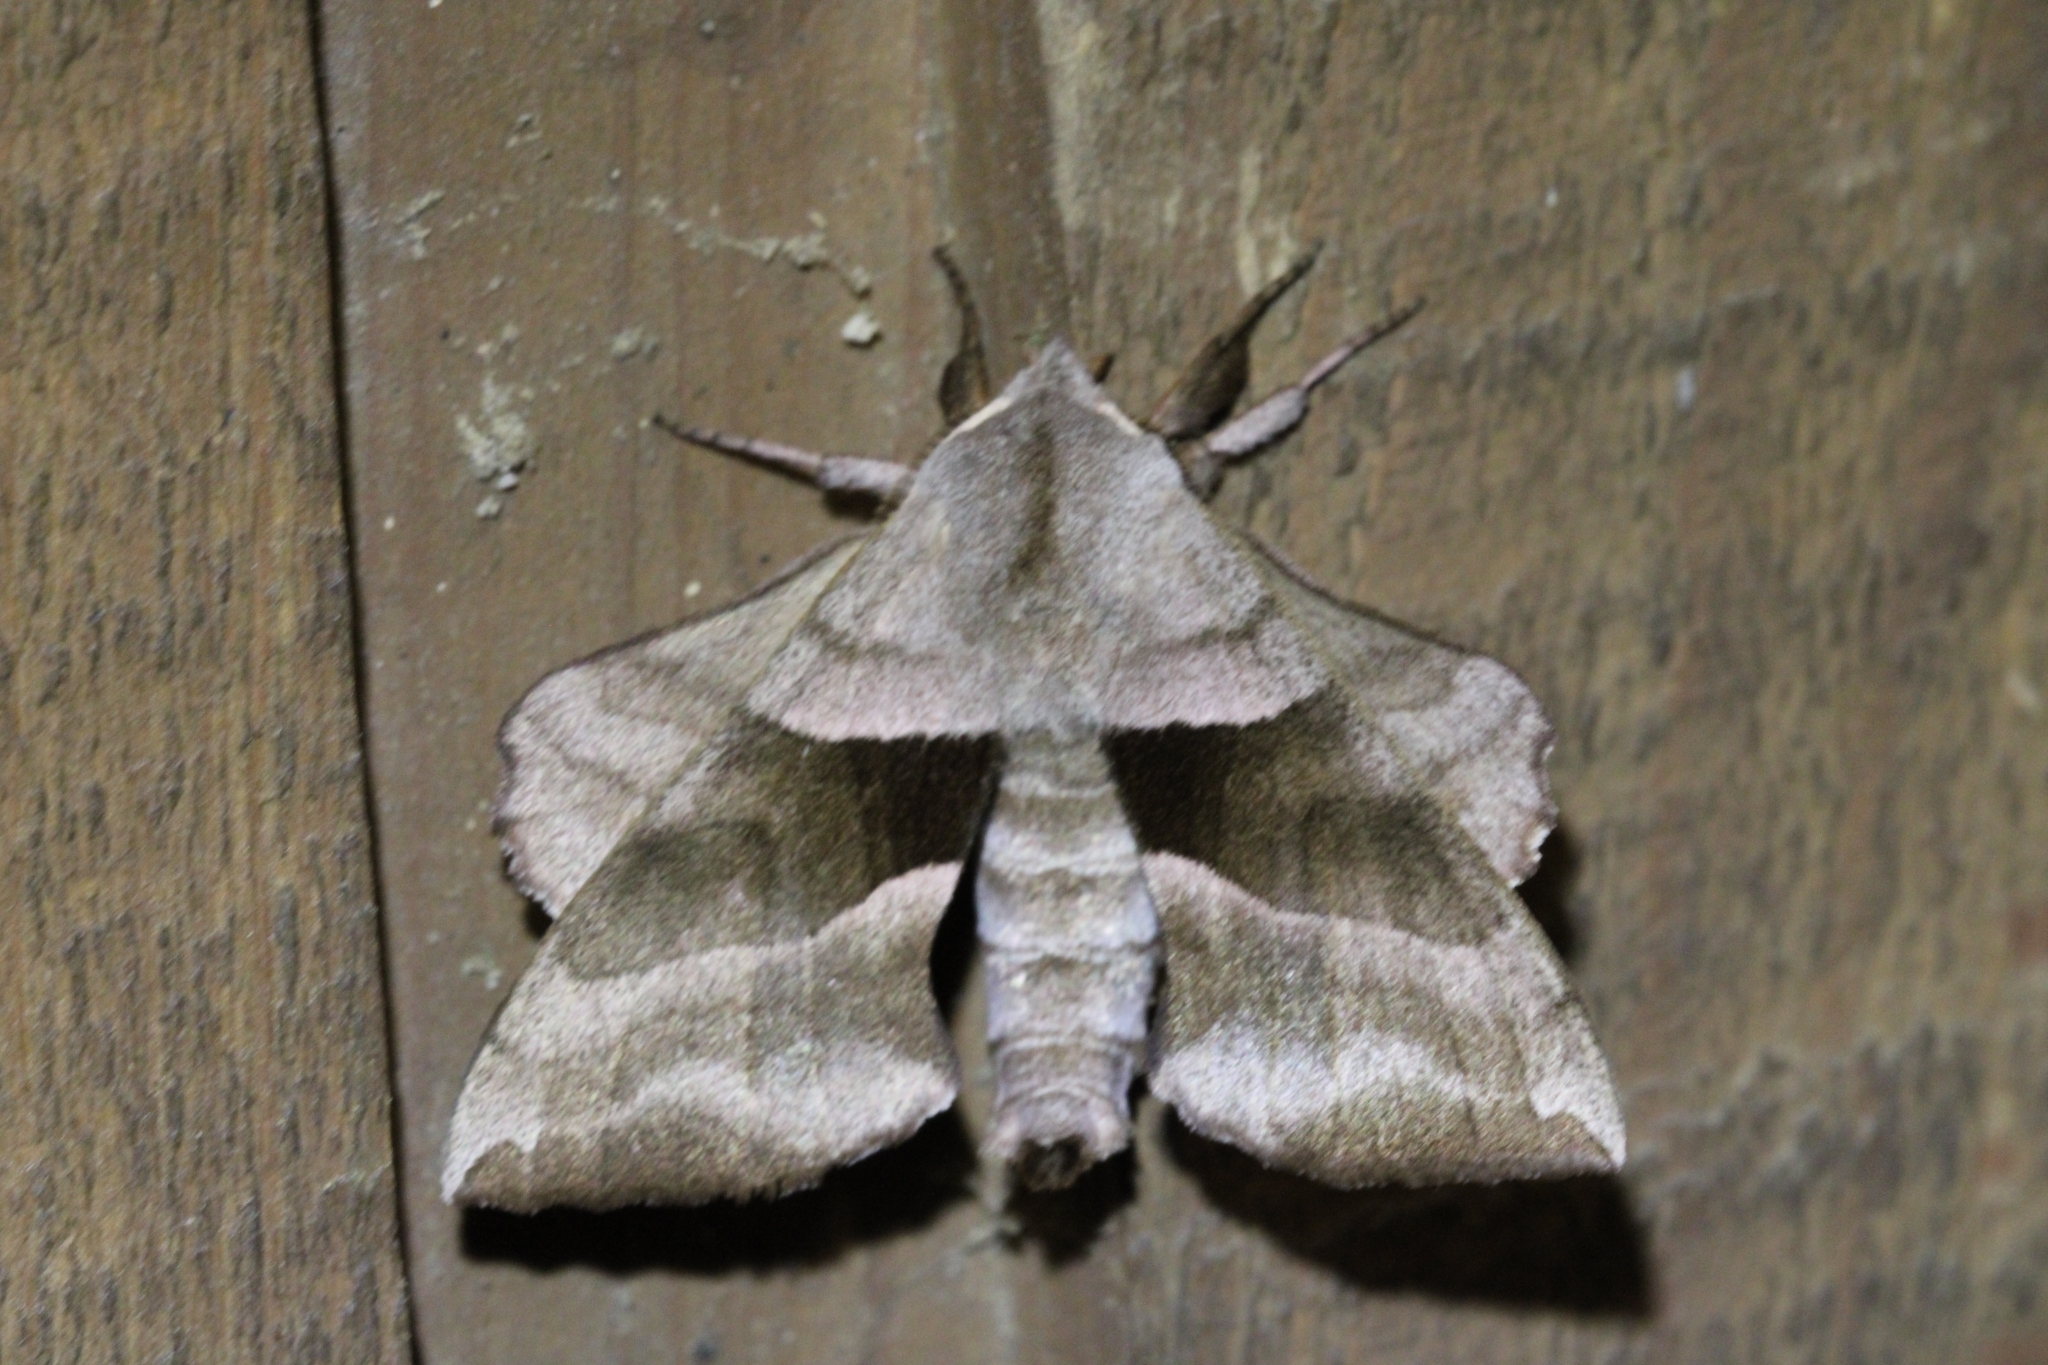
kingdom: Animalia
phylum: Arthropoda
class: Insecta
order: Lepidoptera
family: Sphingidae
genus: Amorpha
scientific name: Amorpha juglandis
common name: Walnut sphinx
